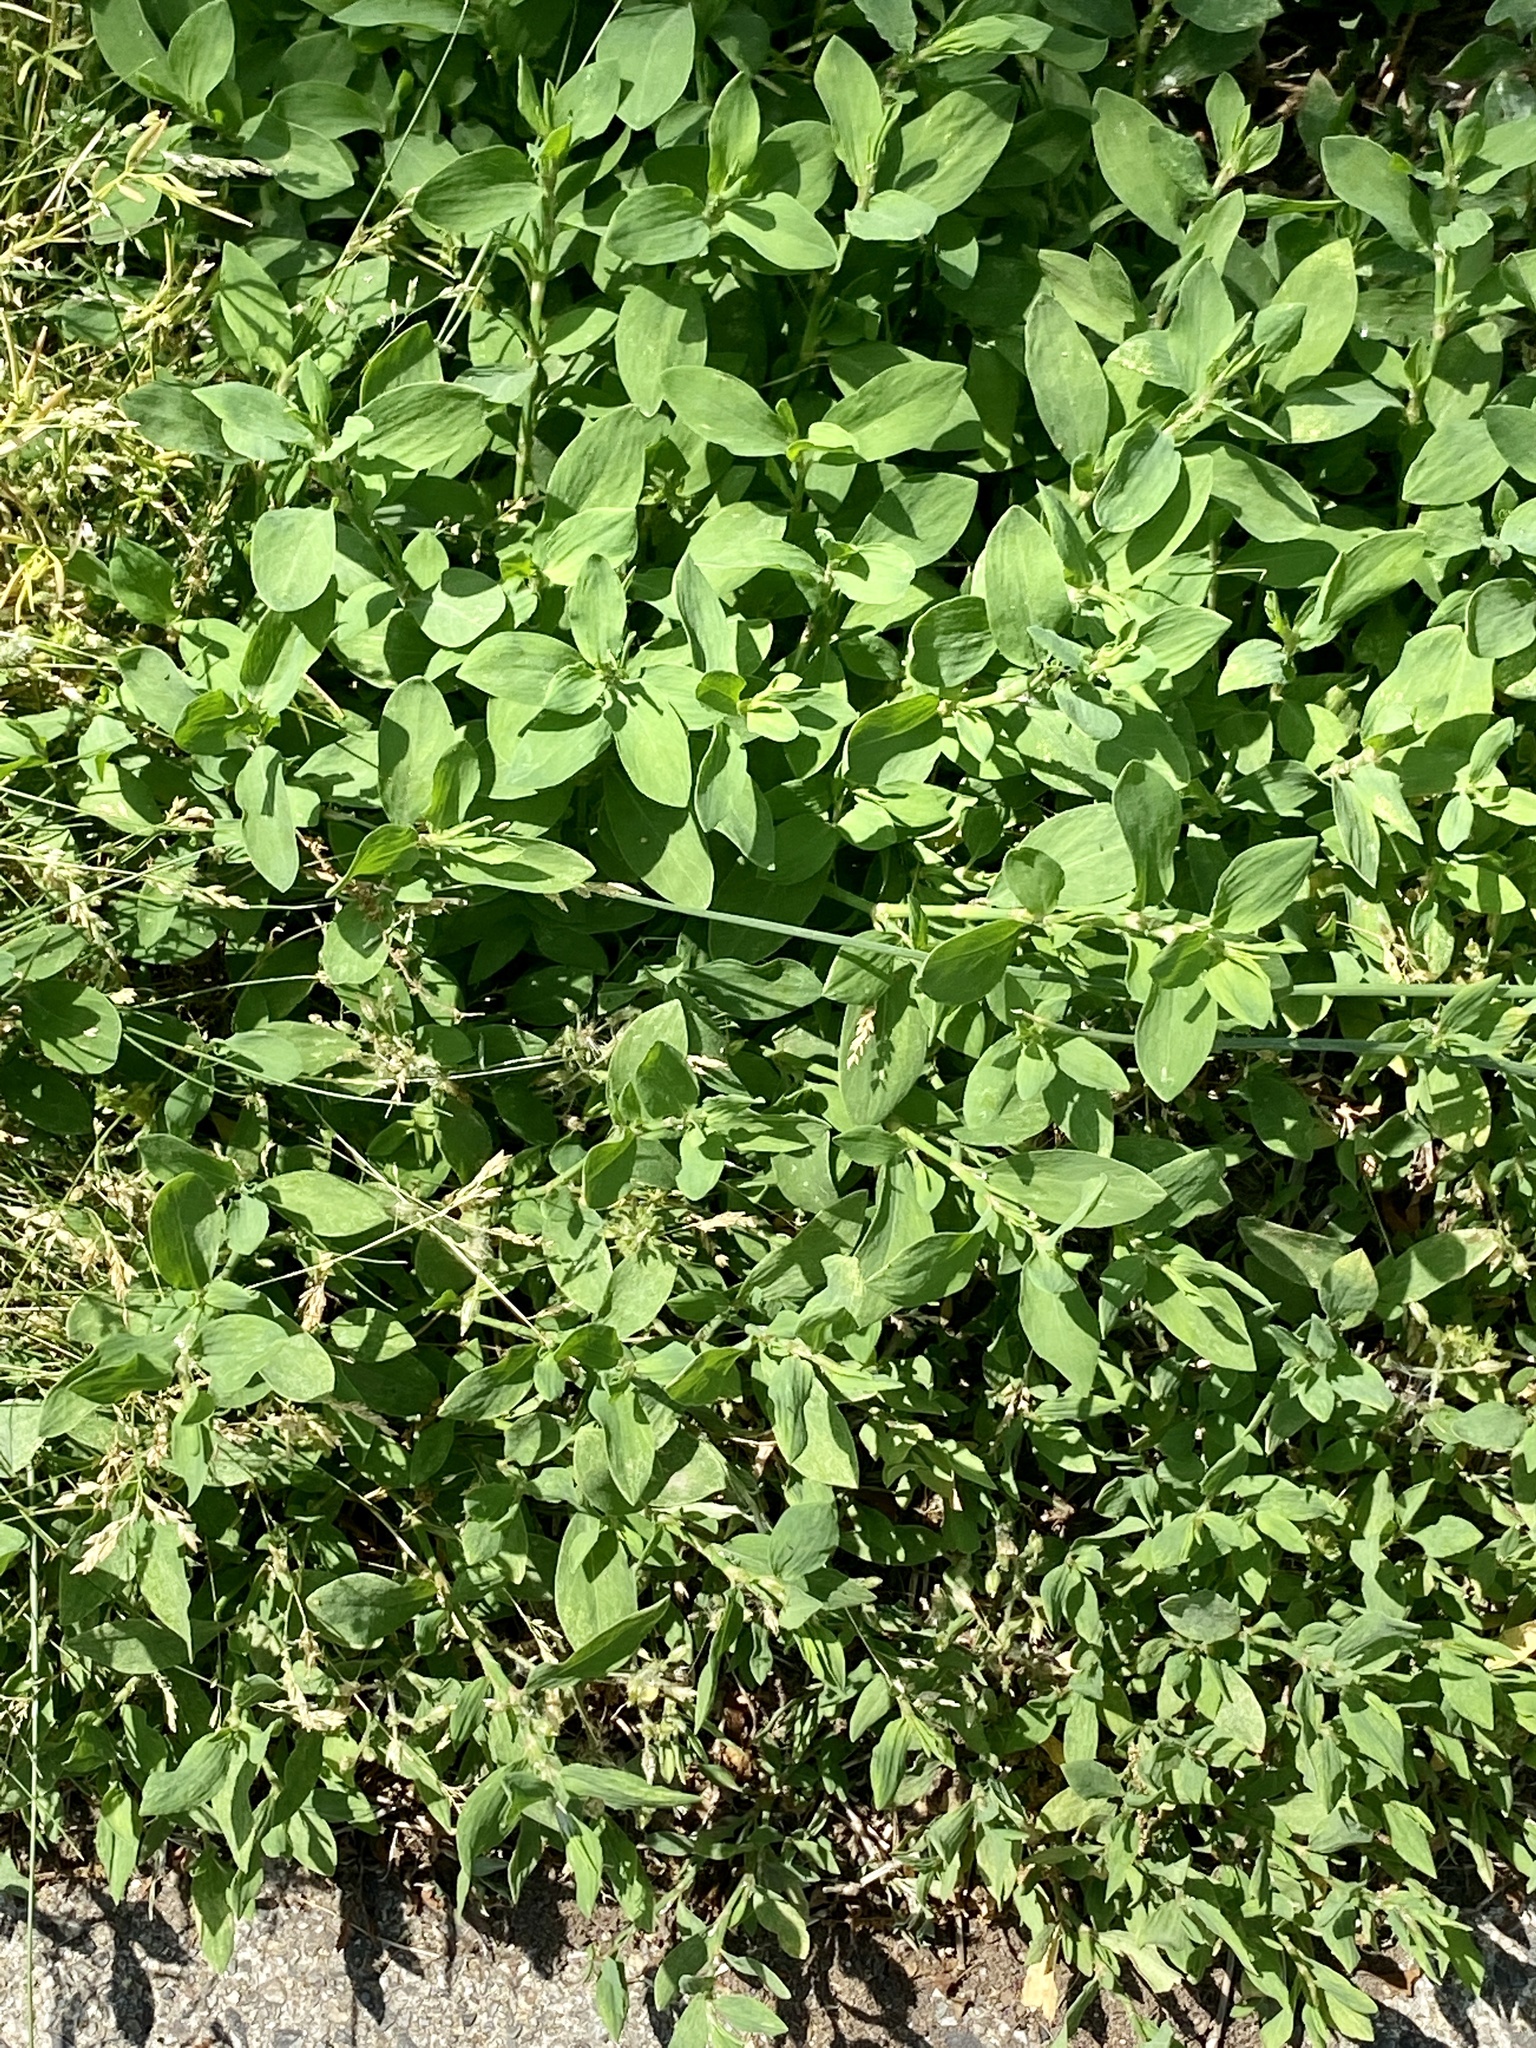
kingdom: Plantae
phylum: Tracheophyta
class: Magnoliopsida
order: Caryophyllales
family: Polygonaceae
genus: Polygonum
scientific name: Polygonum aviculare
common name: Prostrate knotweed
